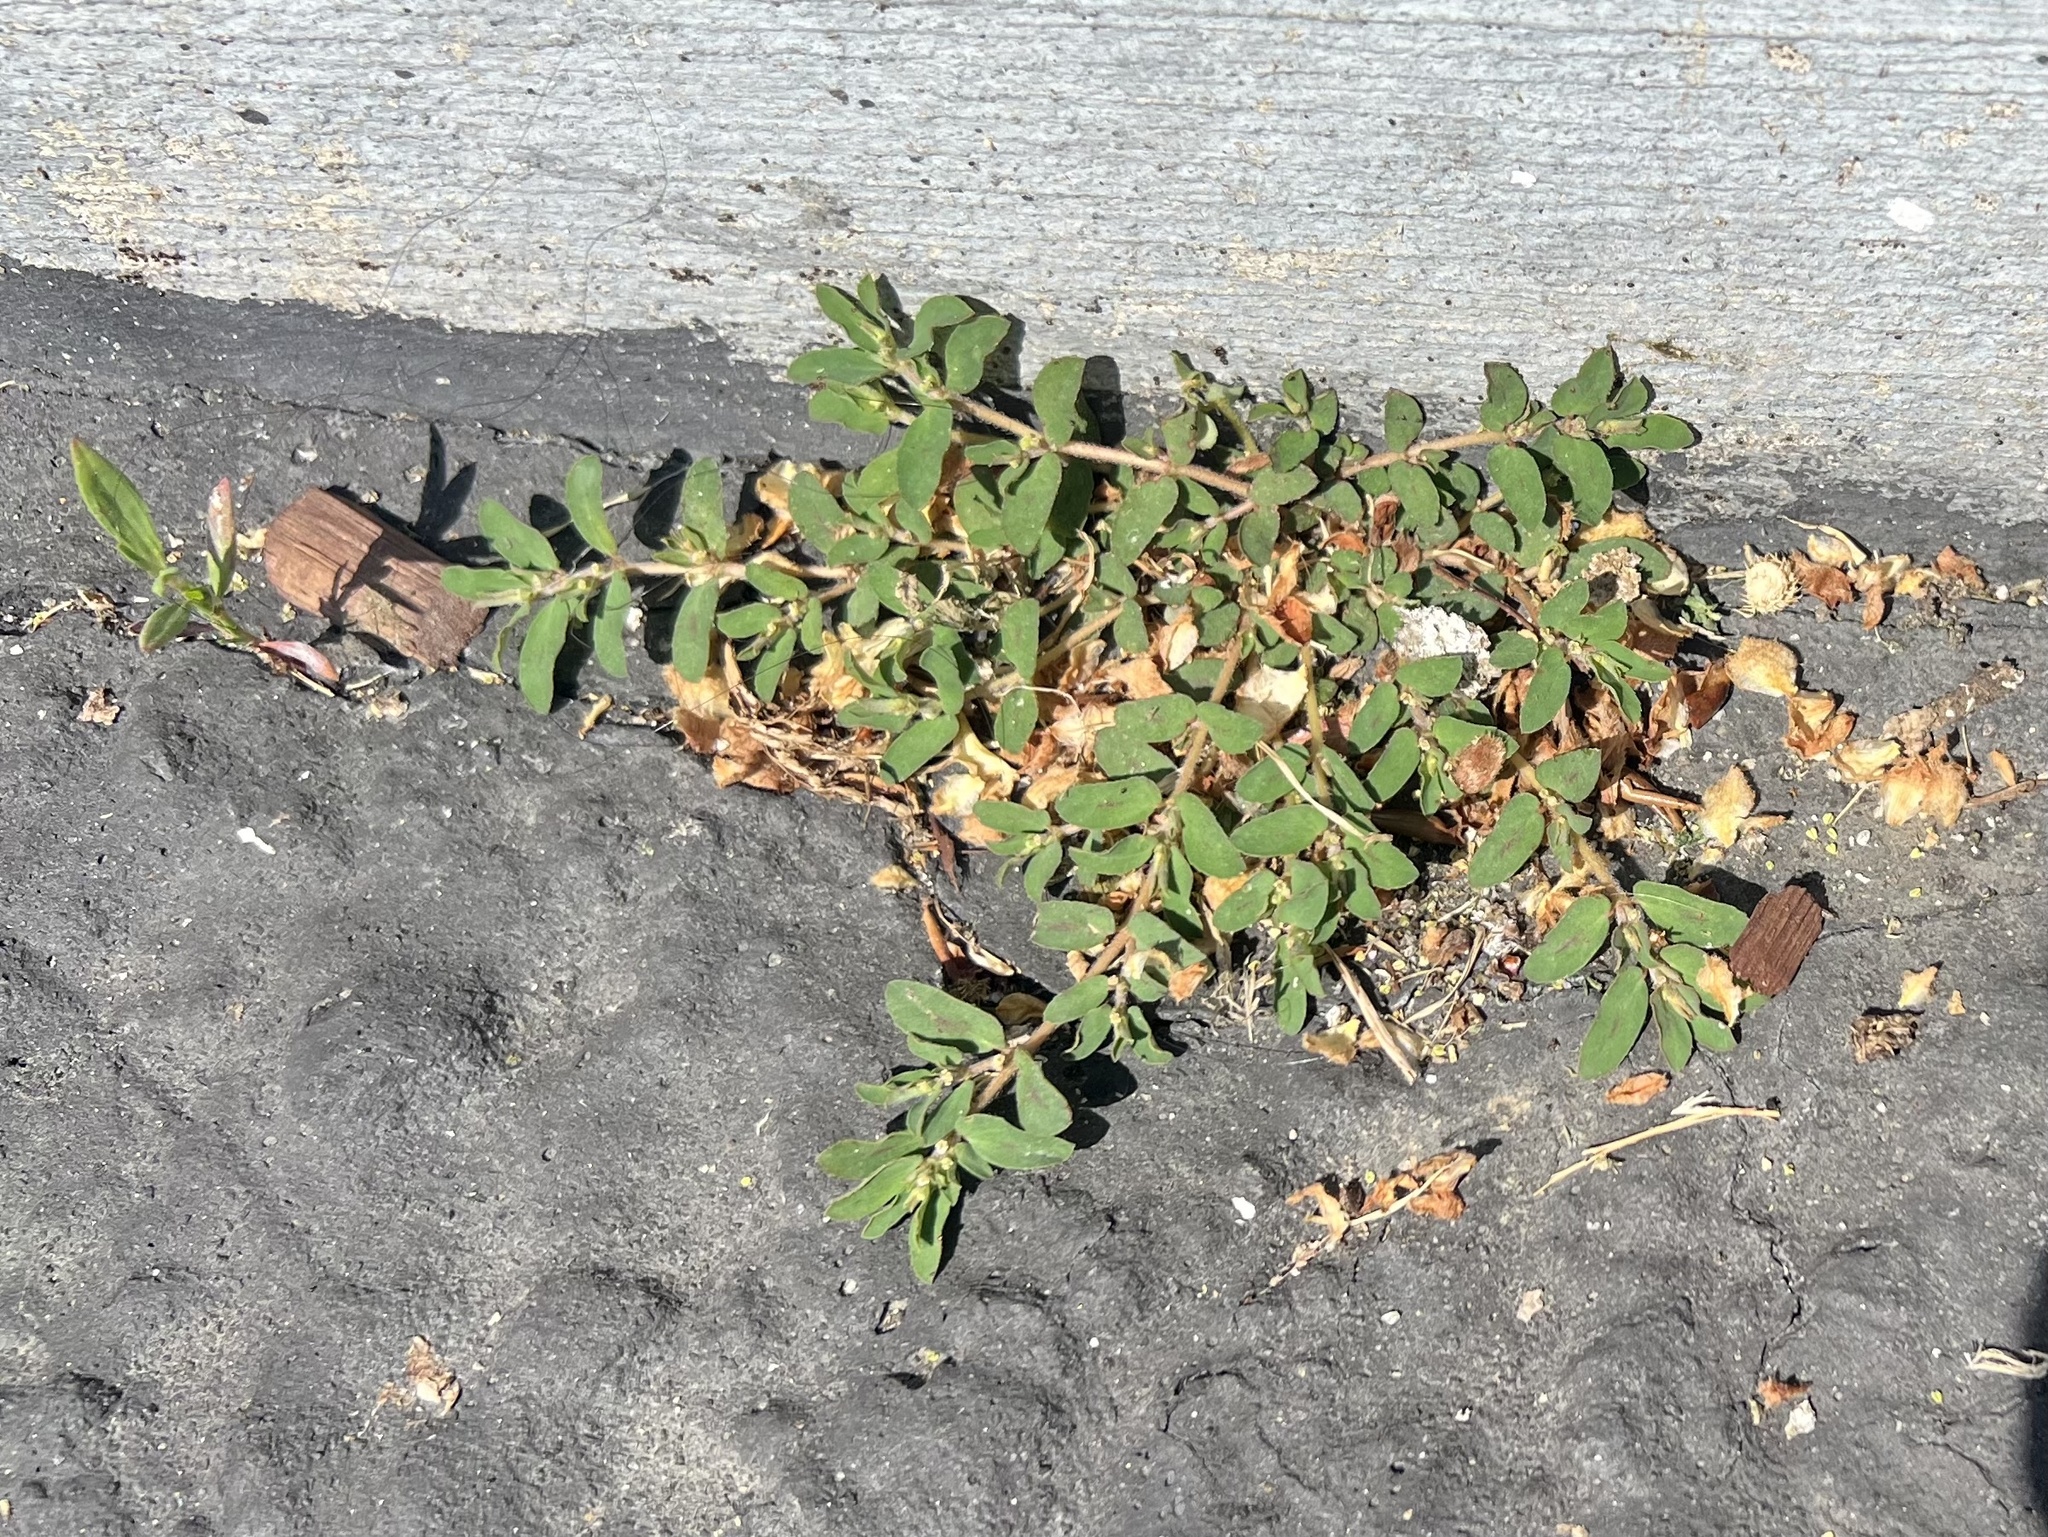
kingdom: Plantae
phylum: Tracheophyta
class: Magnoliopsida
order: Malpighiales
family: Euphorbiaceae
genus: Euphorbia
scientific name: Euphorbia maculata
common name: Spotted spurge
